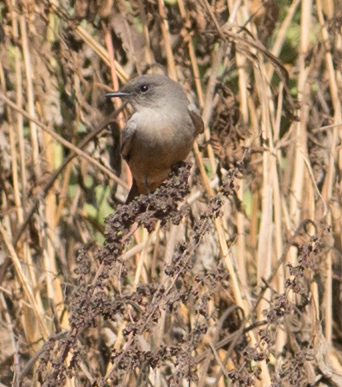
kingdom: Animalia
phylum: Chordata
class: Aves
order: Passeriformes
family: Tyrannidae
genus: Sayornis
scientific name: Sayornis saya
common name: Say's phoebe
